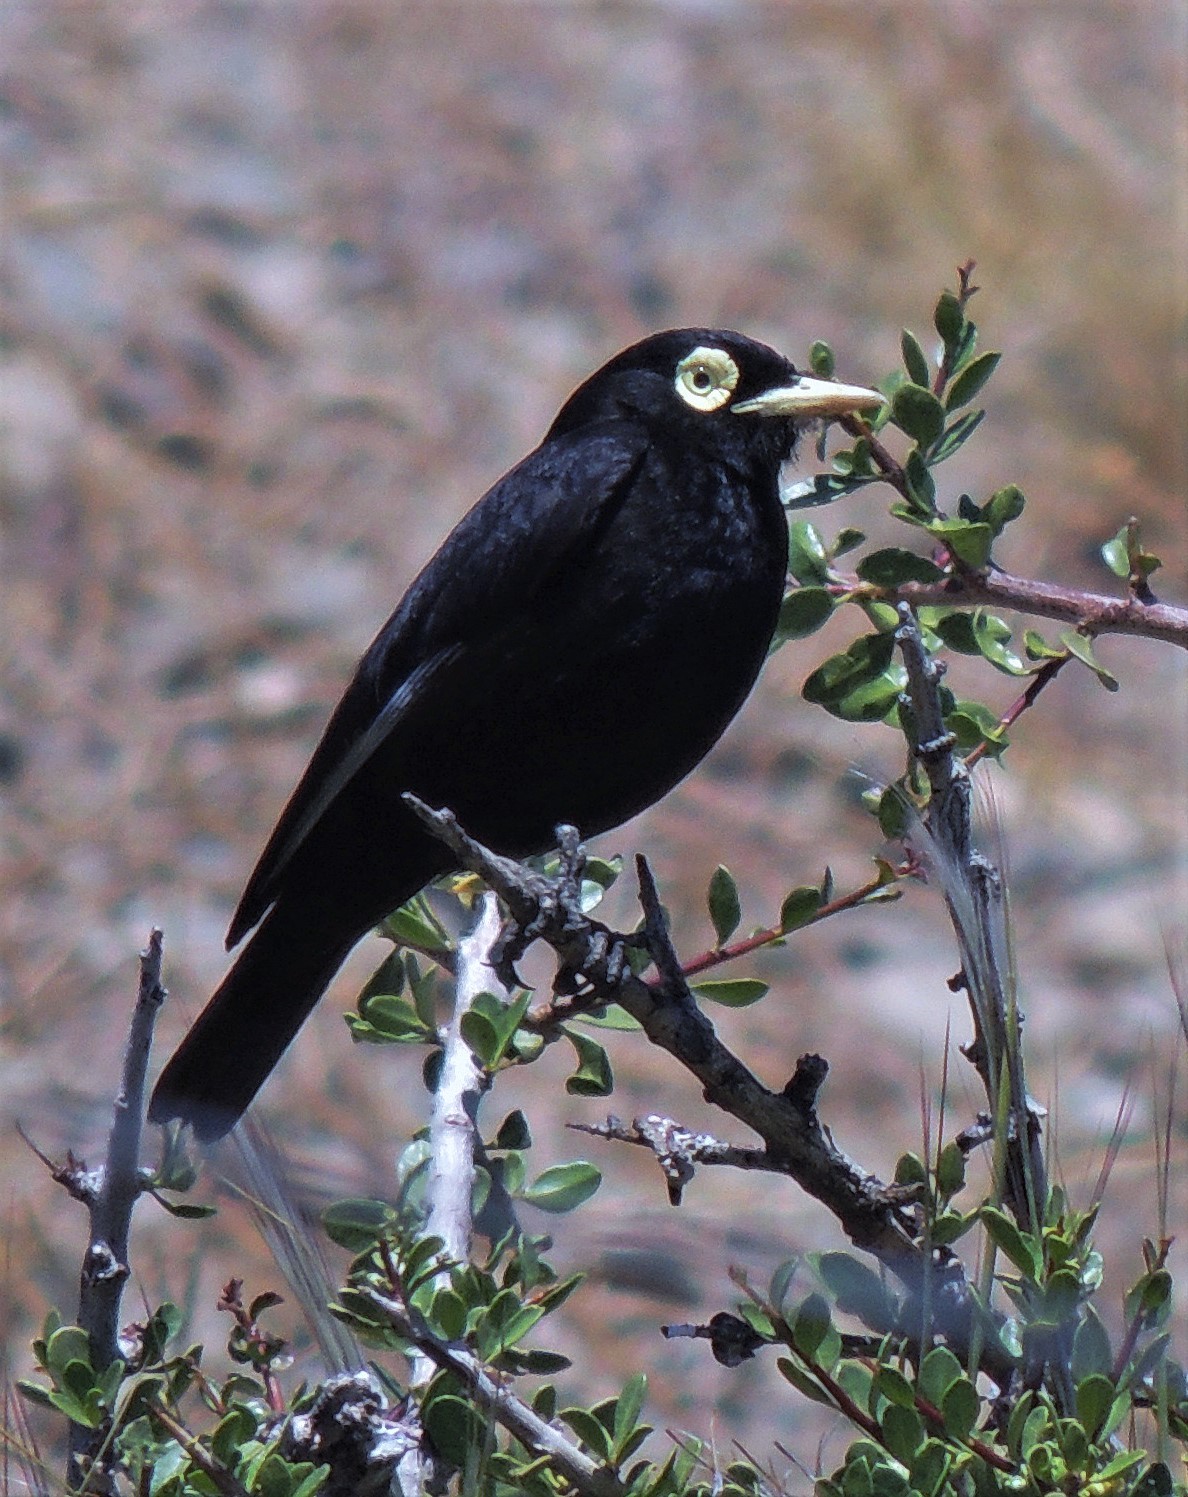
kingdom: Animalia
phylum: Chordata
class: Aves
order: Passeriformes
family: Tyrannidae
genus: Hymenops
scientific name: Hymenops perspicillatus
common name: Spectacled tyrant
